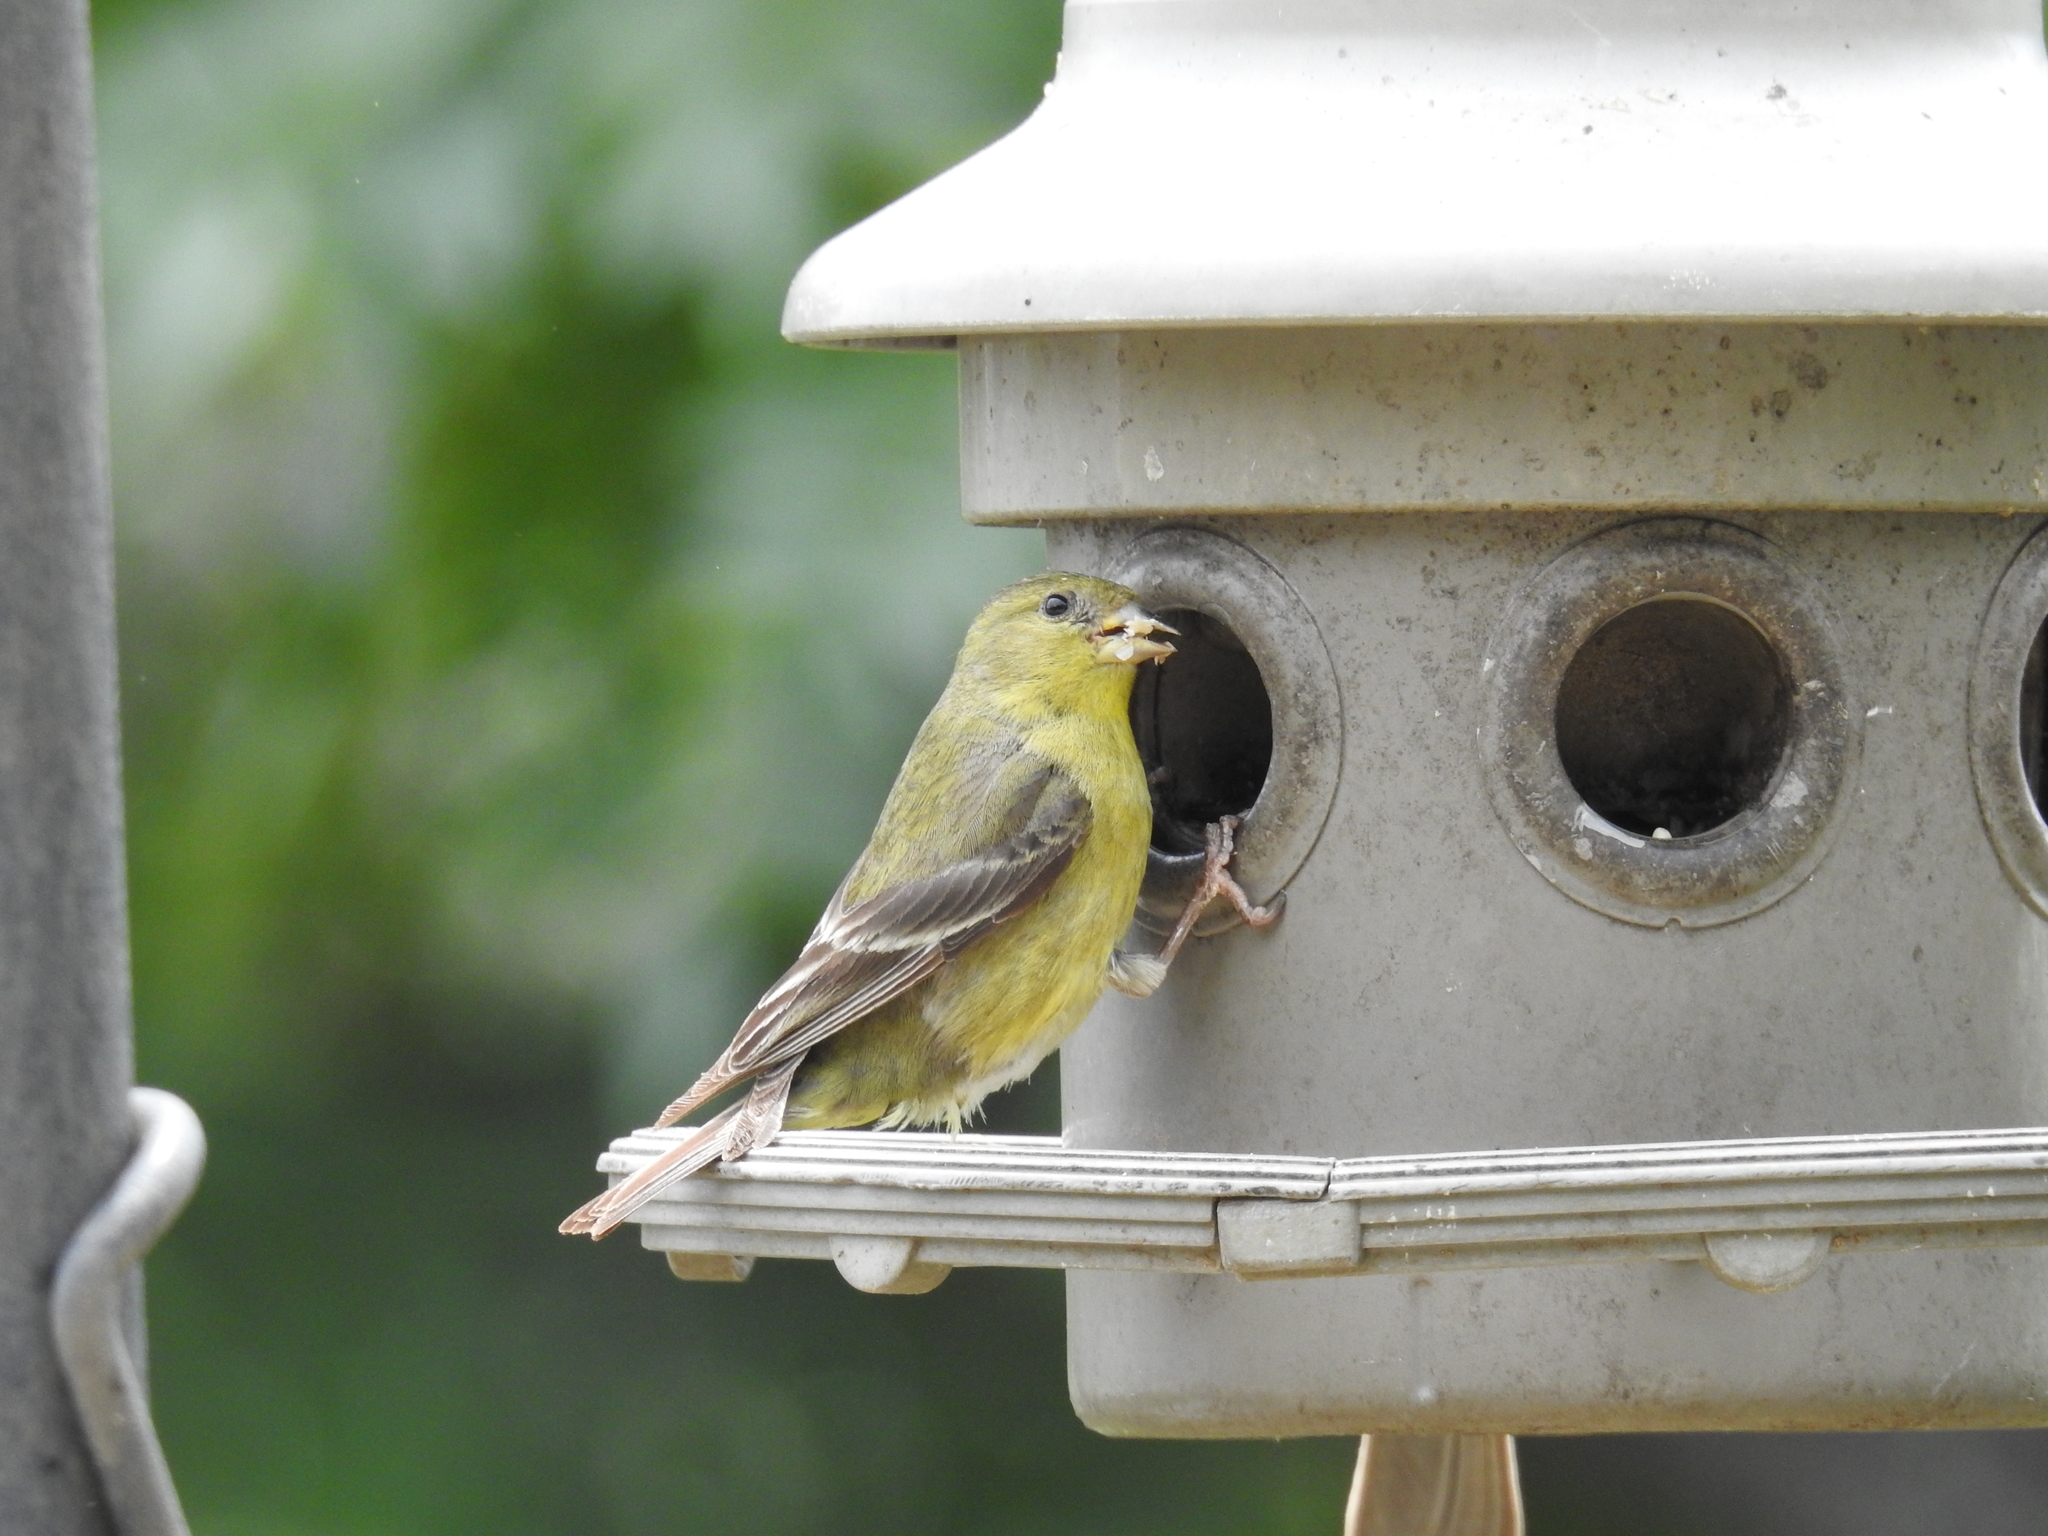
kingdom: Animalia
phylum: Chordata
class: Aves
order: Passeriformes
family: Fringillidae
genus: Spinus
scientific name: Spinus psaltria
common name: Lesser goldfinch
